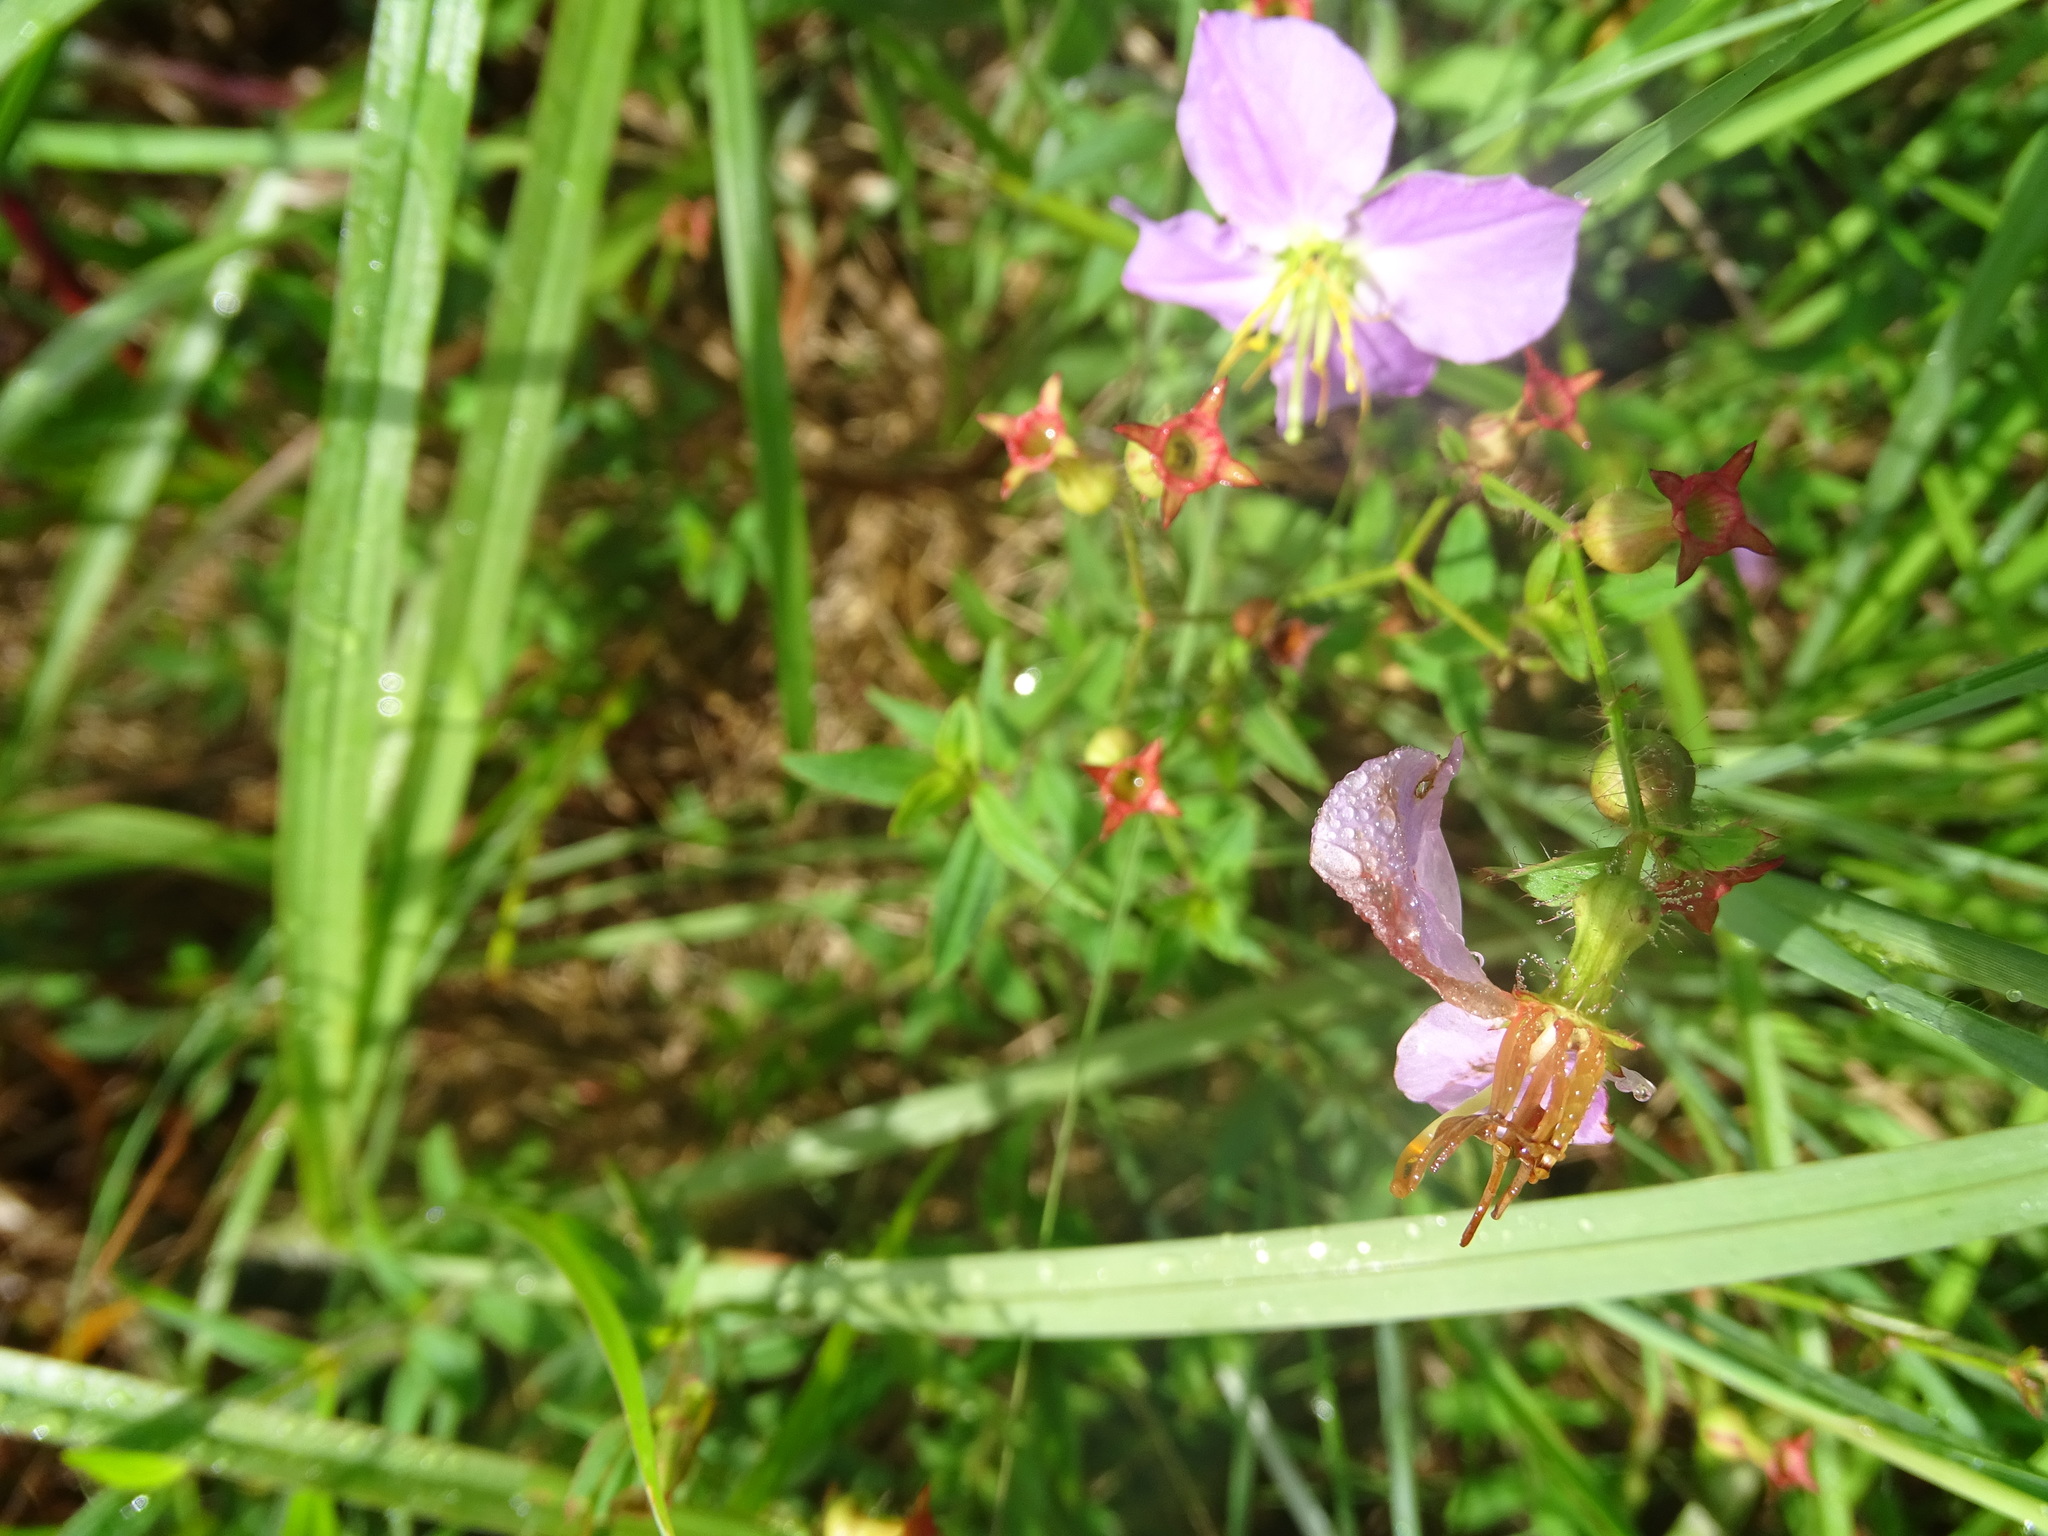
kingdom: Plantae
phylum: Tracheophyta
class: Magnoliopsida
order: Myrtales
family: Melastomataceae
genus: Rhexia
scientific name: Rhexia mariana
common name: Dull meadow-pitcher
